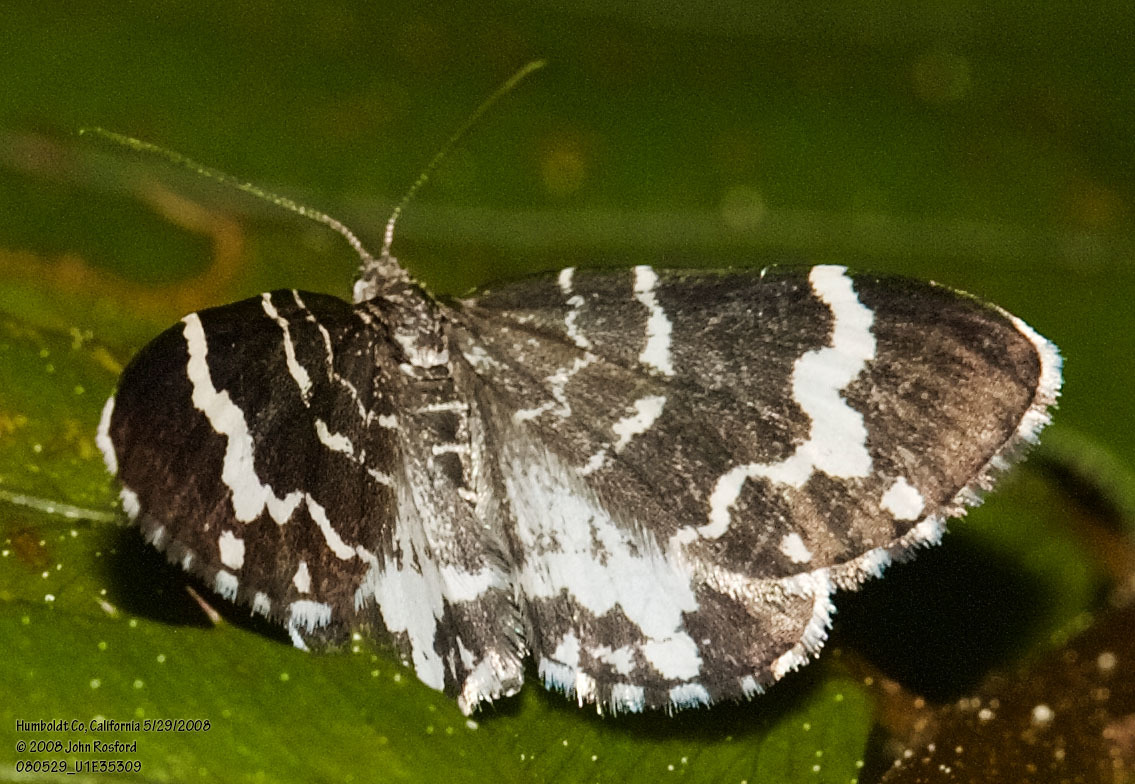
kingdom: Animalia
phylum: Arthropoda
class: Insecta
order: Lepidoptera
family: Geometridae
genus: Trichodezia
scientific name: Trichodezia californiata
